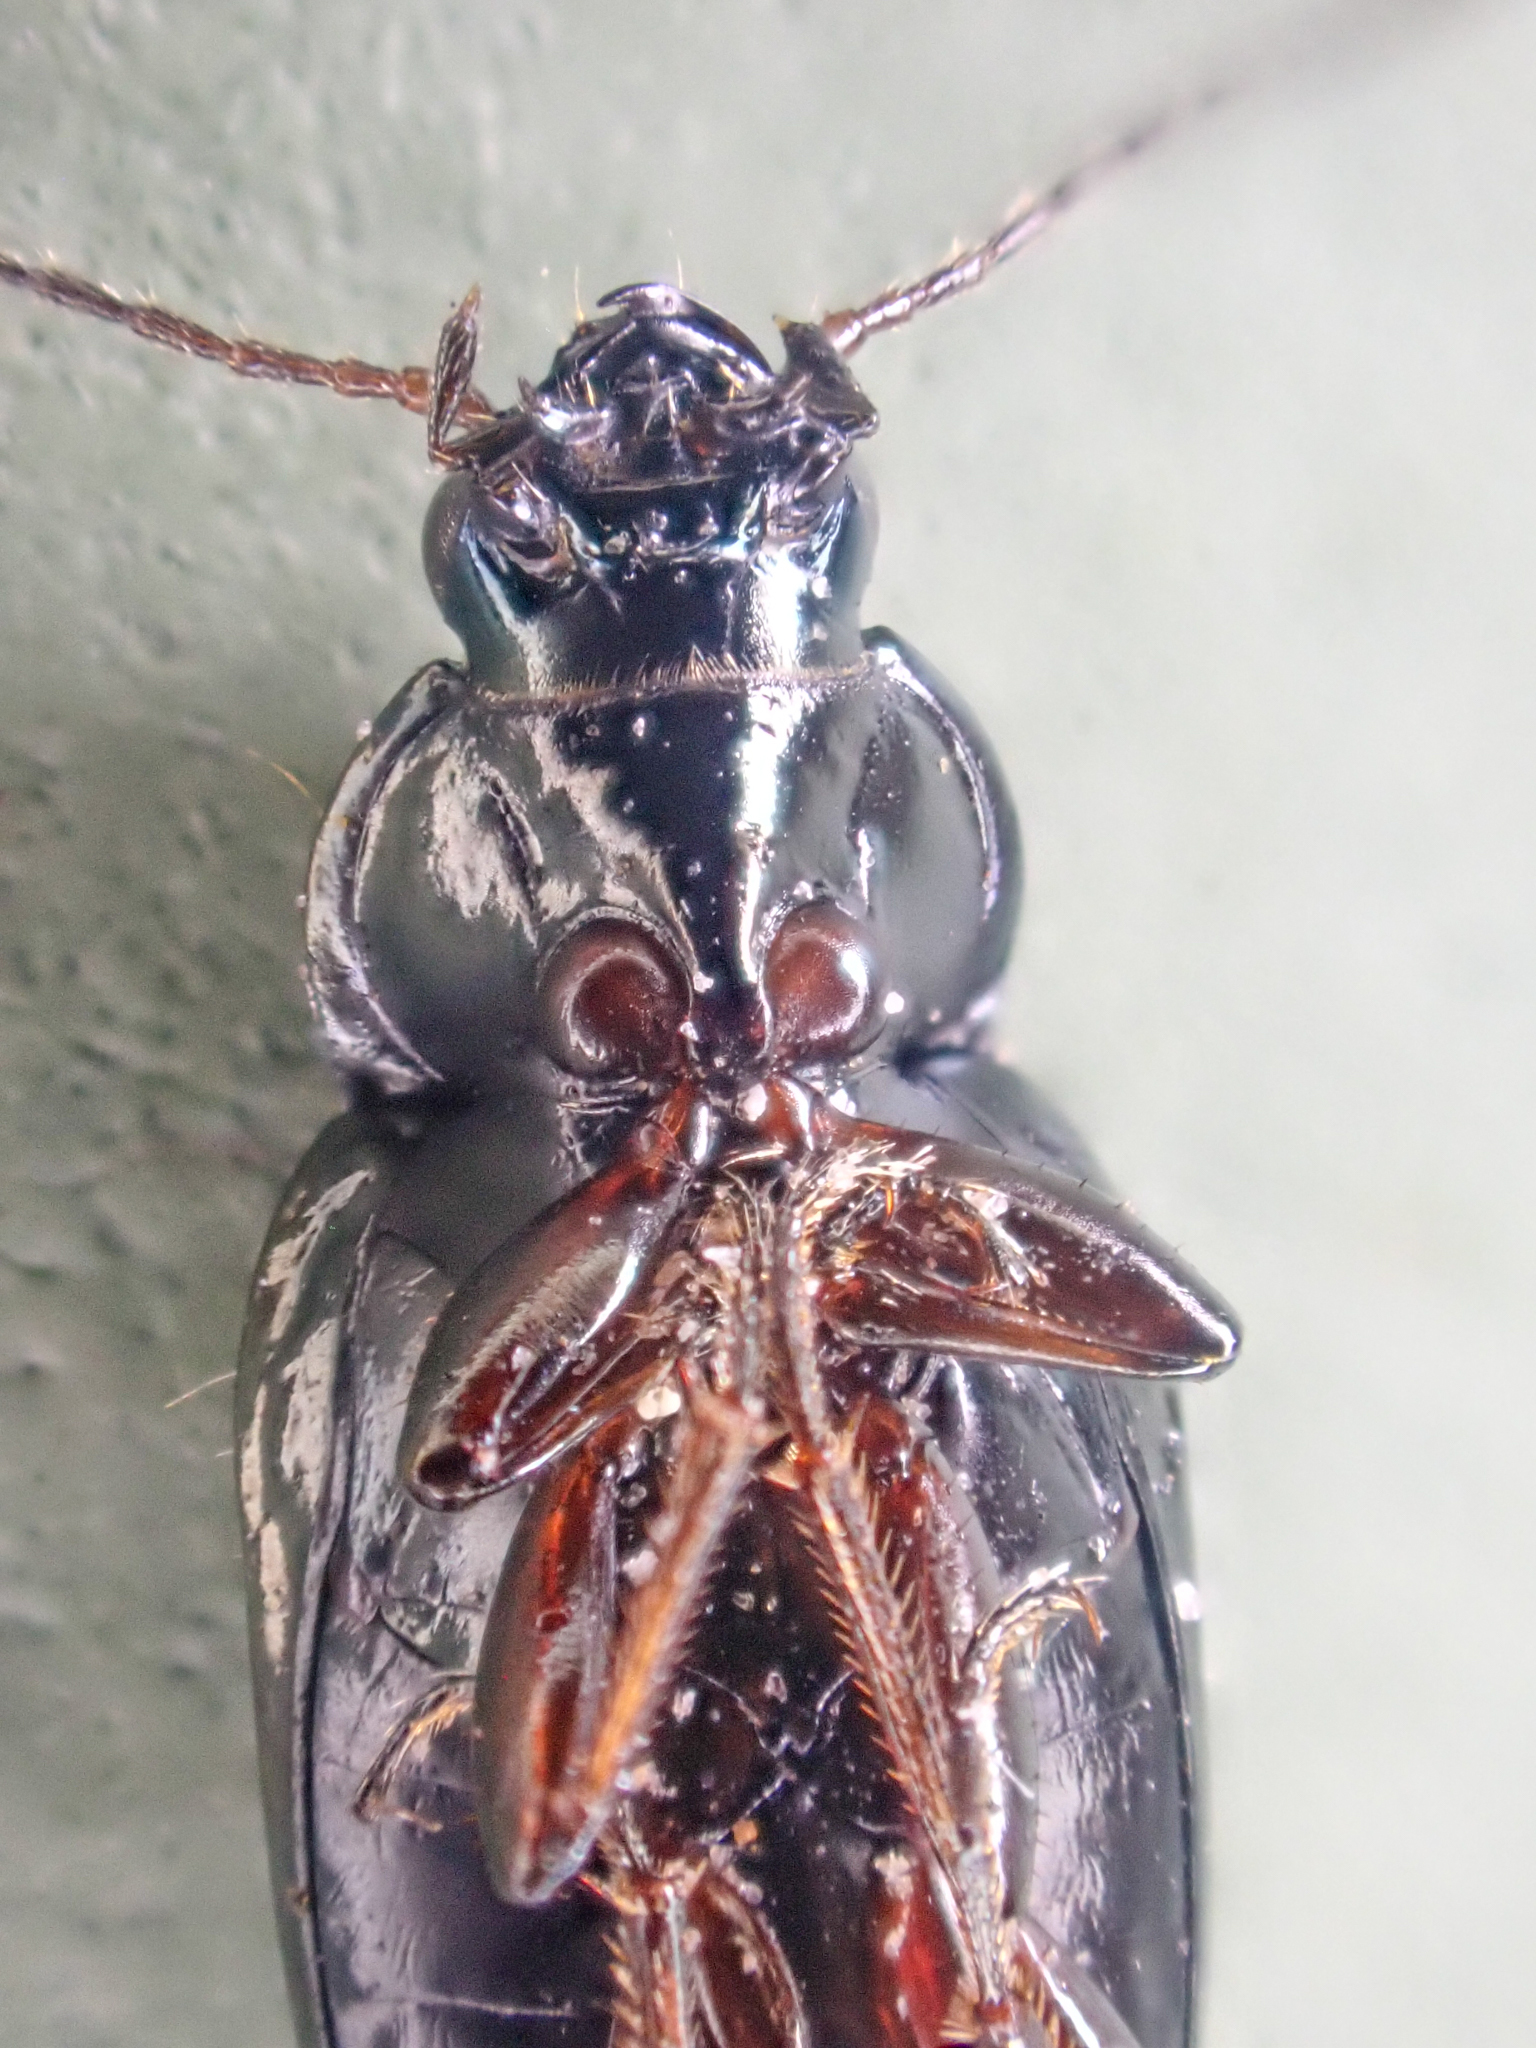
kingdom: Animalia
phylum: Arthropoda
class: Insecta
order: Coleoptera
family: Carabidae
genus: Bembidion
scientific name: Bembidion interventor
